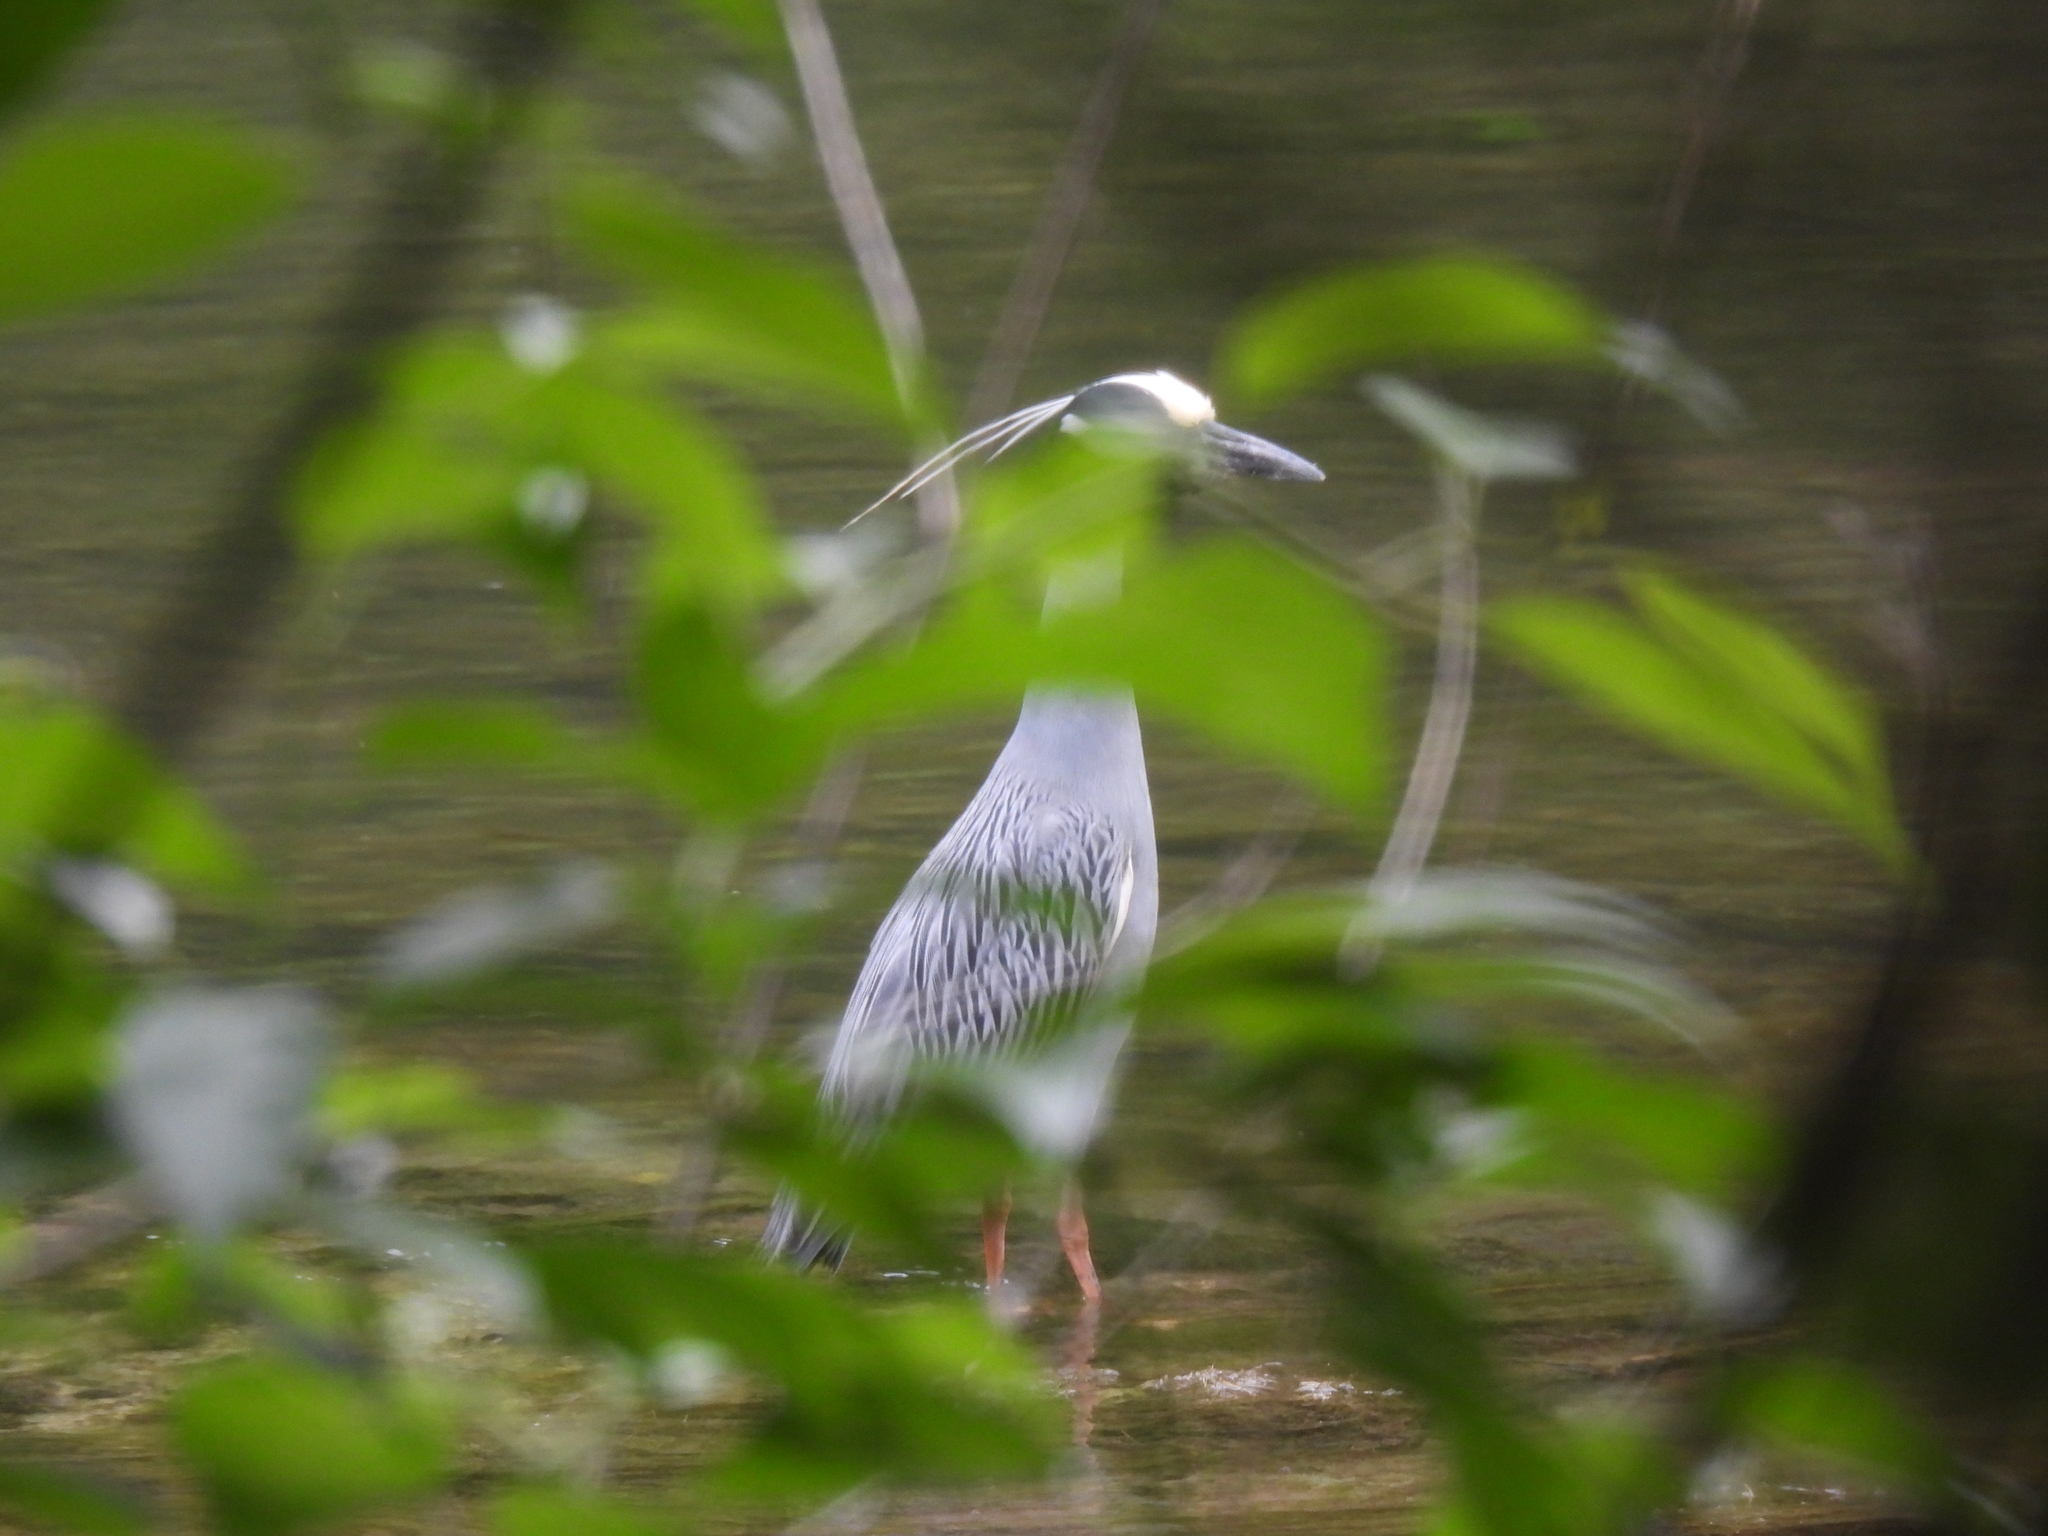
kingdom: Animalia
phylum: Chordata
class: Aves
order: Pelecaniformes
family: Ardeidae
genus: Nyctanassa
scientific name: Nyctanassa violacea
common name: Yellow-crowned night heron
